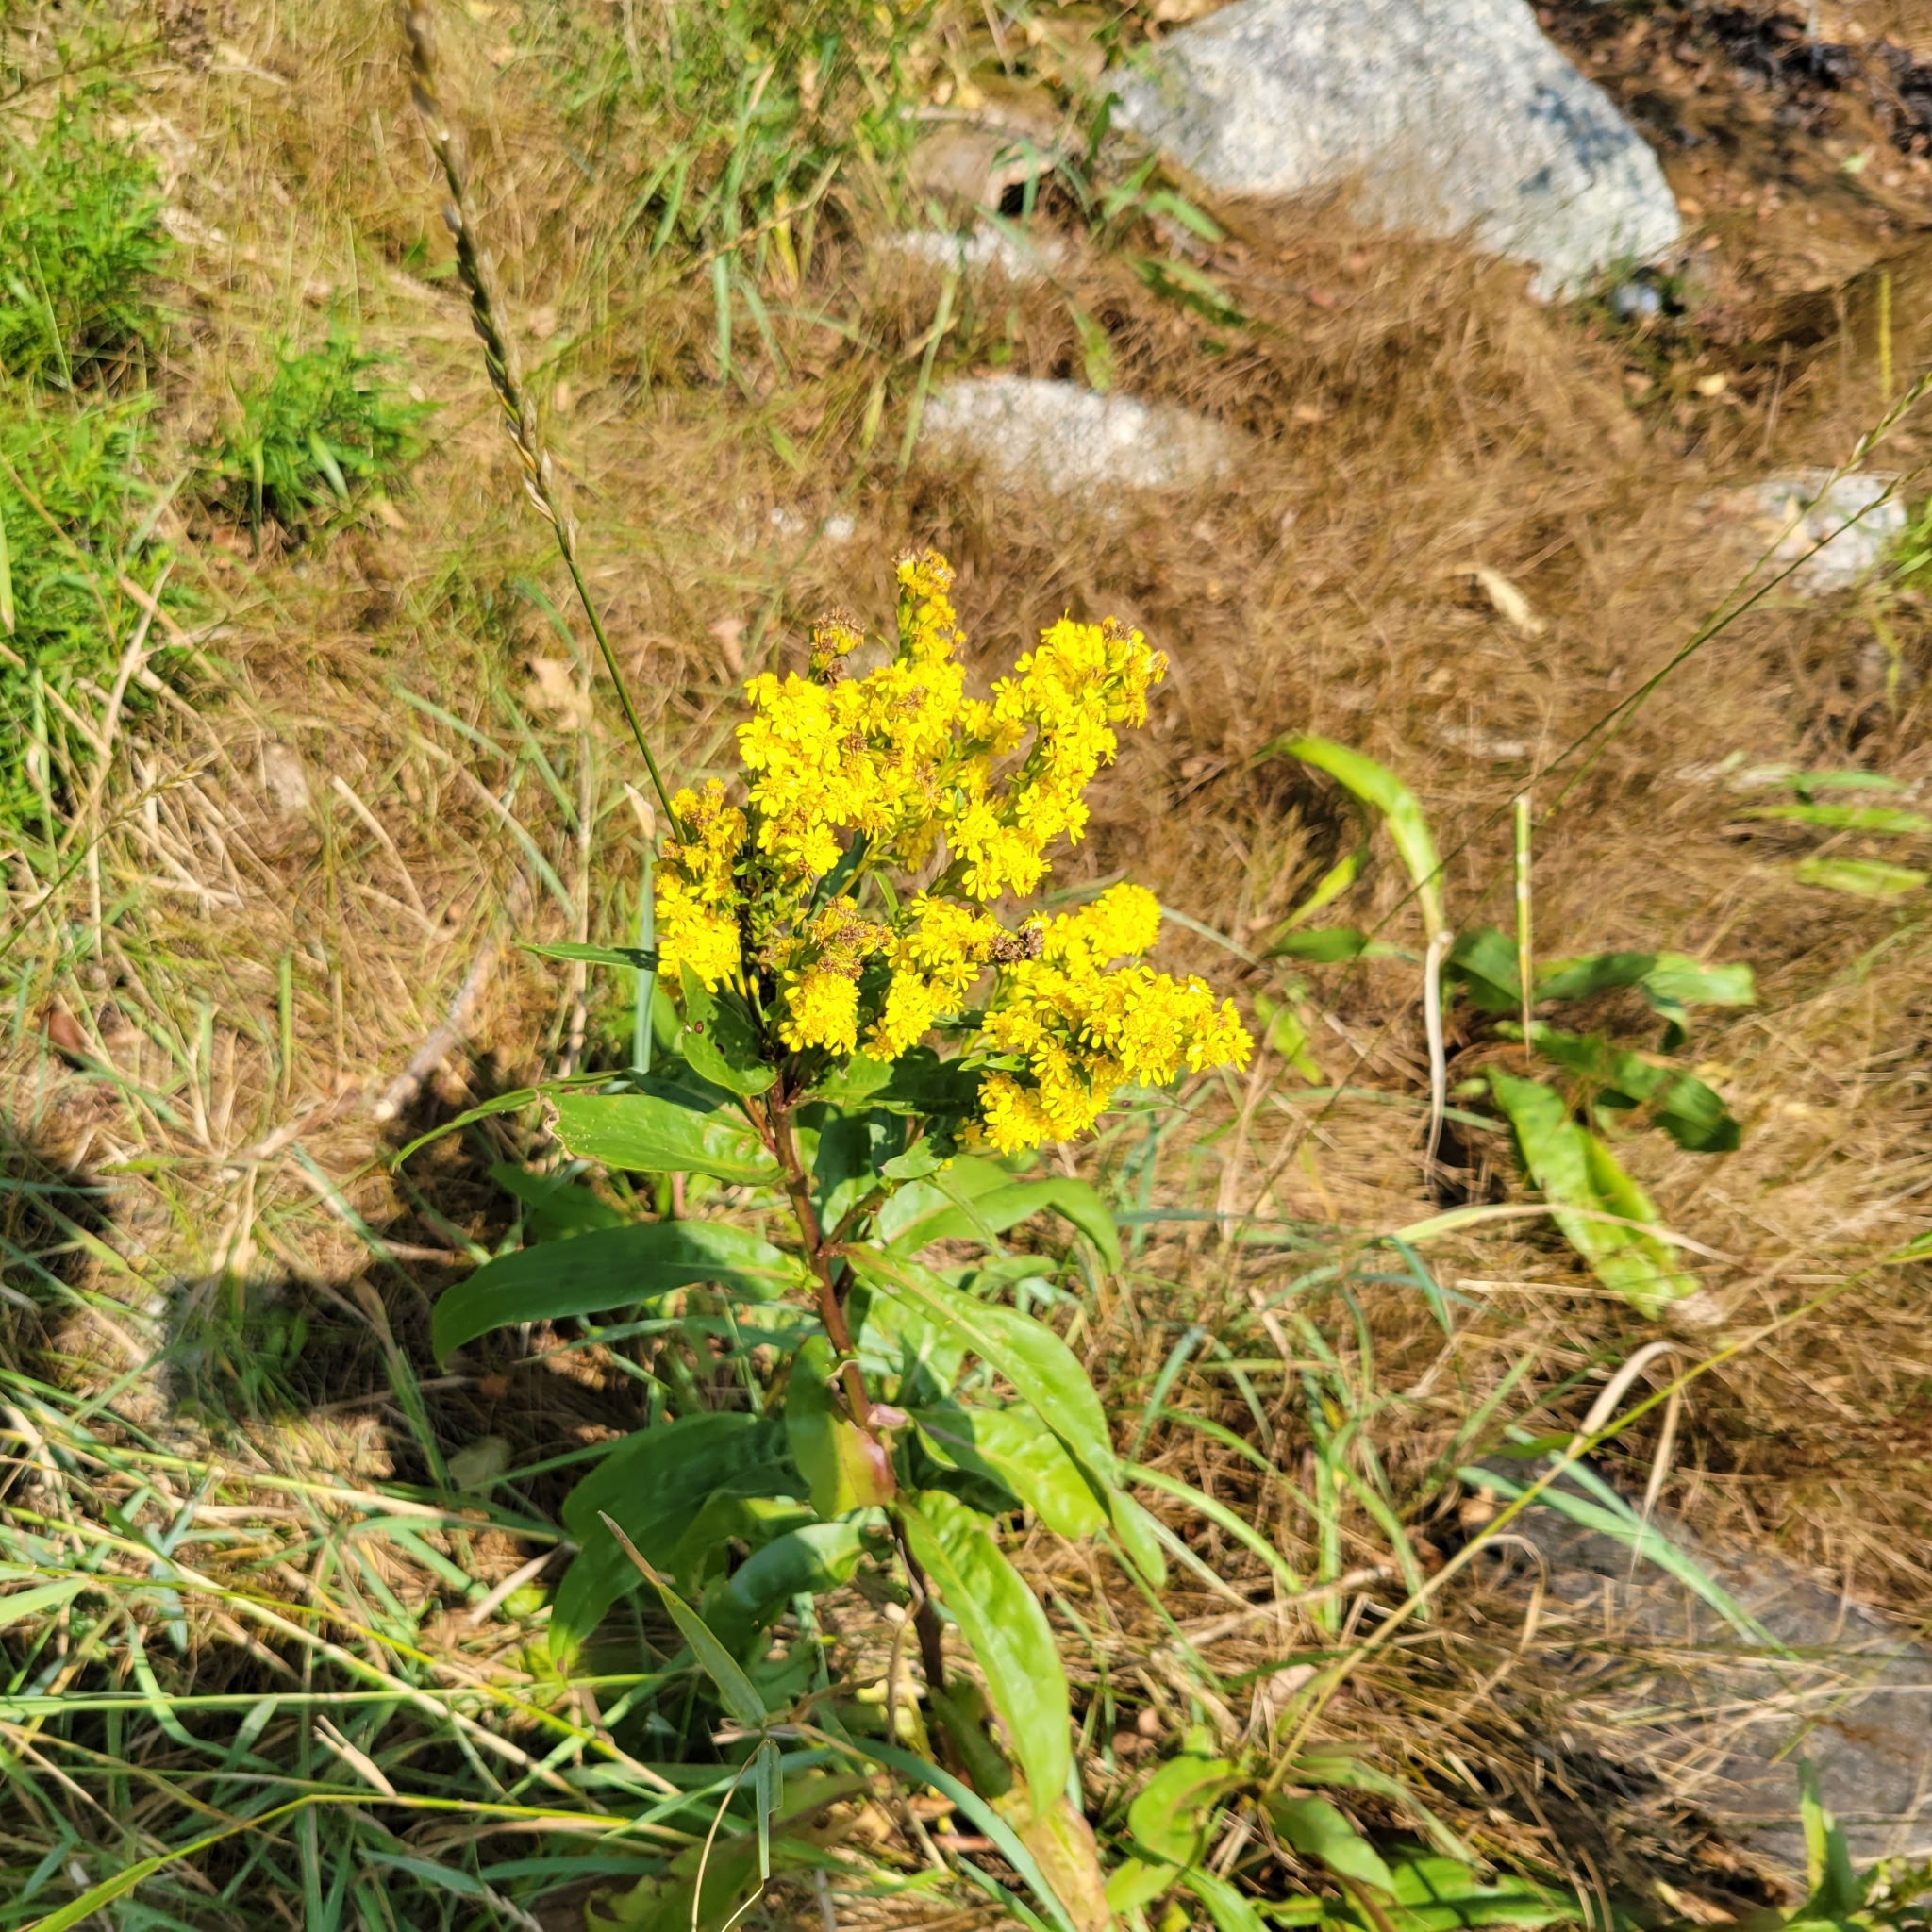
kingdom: Plantae
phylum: Tracheophyta
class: Magnoliopsida
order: Asterales
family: Asteraceae
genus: Solidago
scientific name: Solidago sempervirens
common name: Salt-marsh goldenrod
